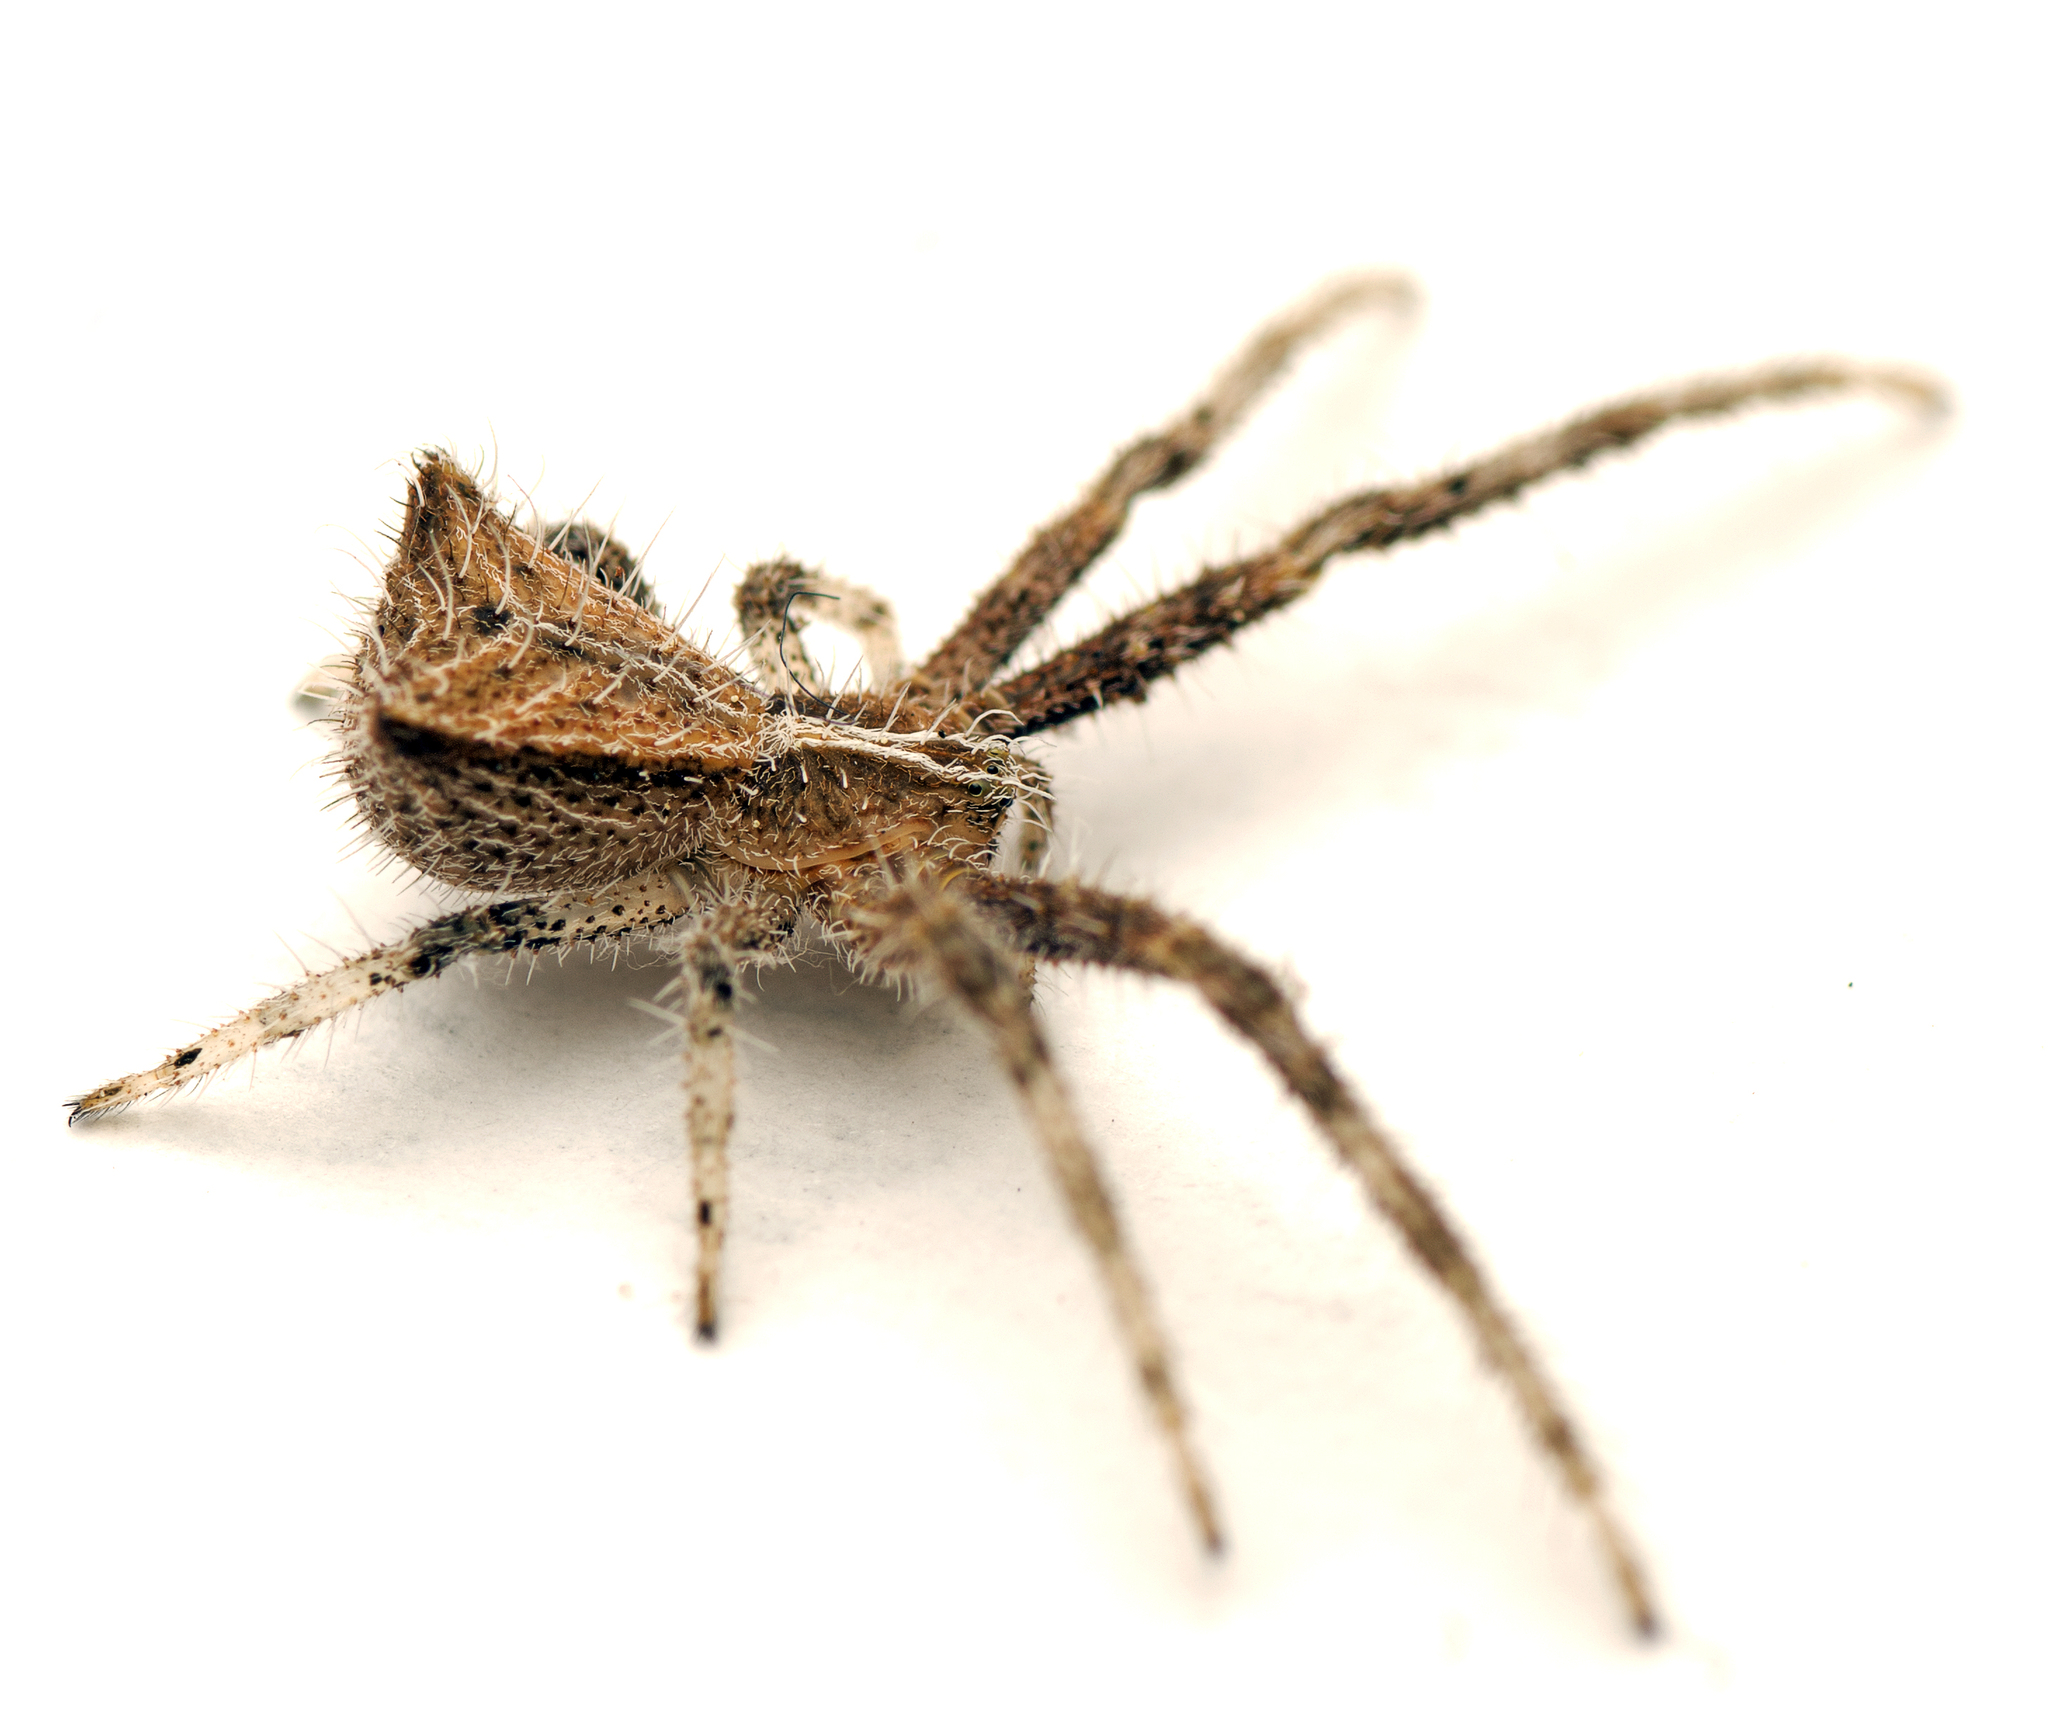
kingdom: Animalia
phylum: Arthropoda
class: Arachnida
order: Araneae
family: Thomisidae
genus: Sidymella
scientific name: Sidymella hirsuta
